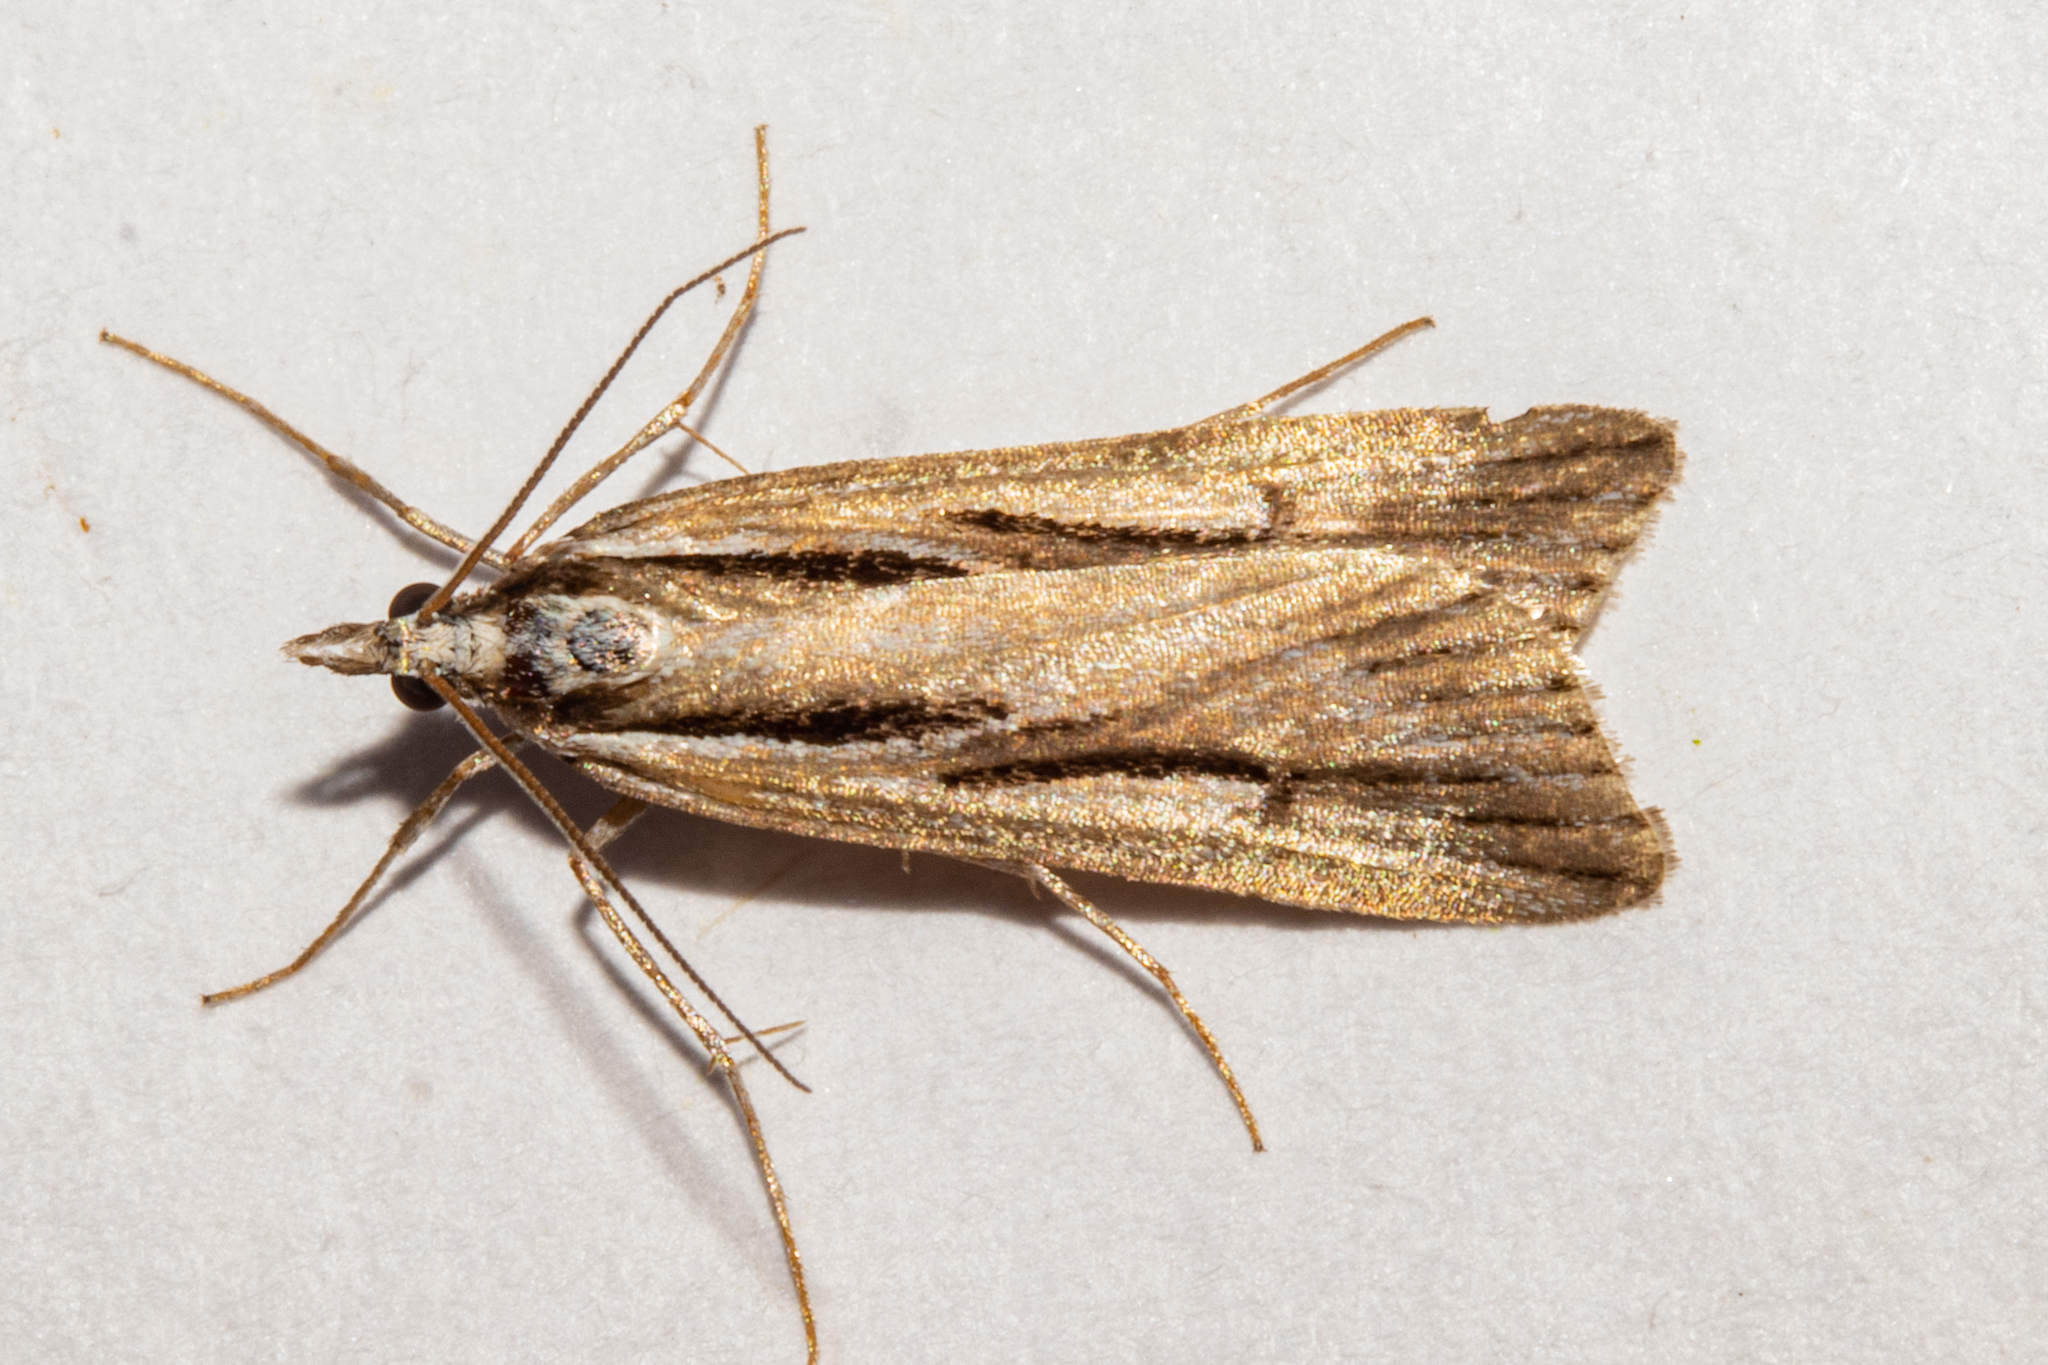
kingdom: Animalia
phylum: Arthropoda
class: Insecta
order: Lepidoptera
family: Crambidae
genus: Scoparia
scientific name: Scoparia panopla
